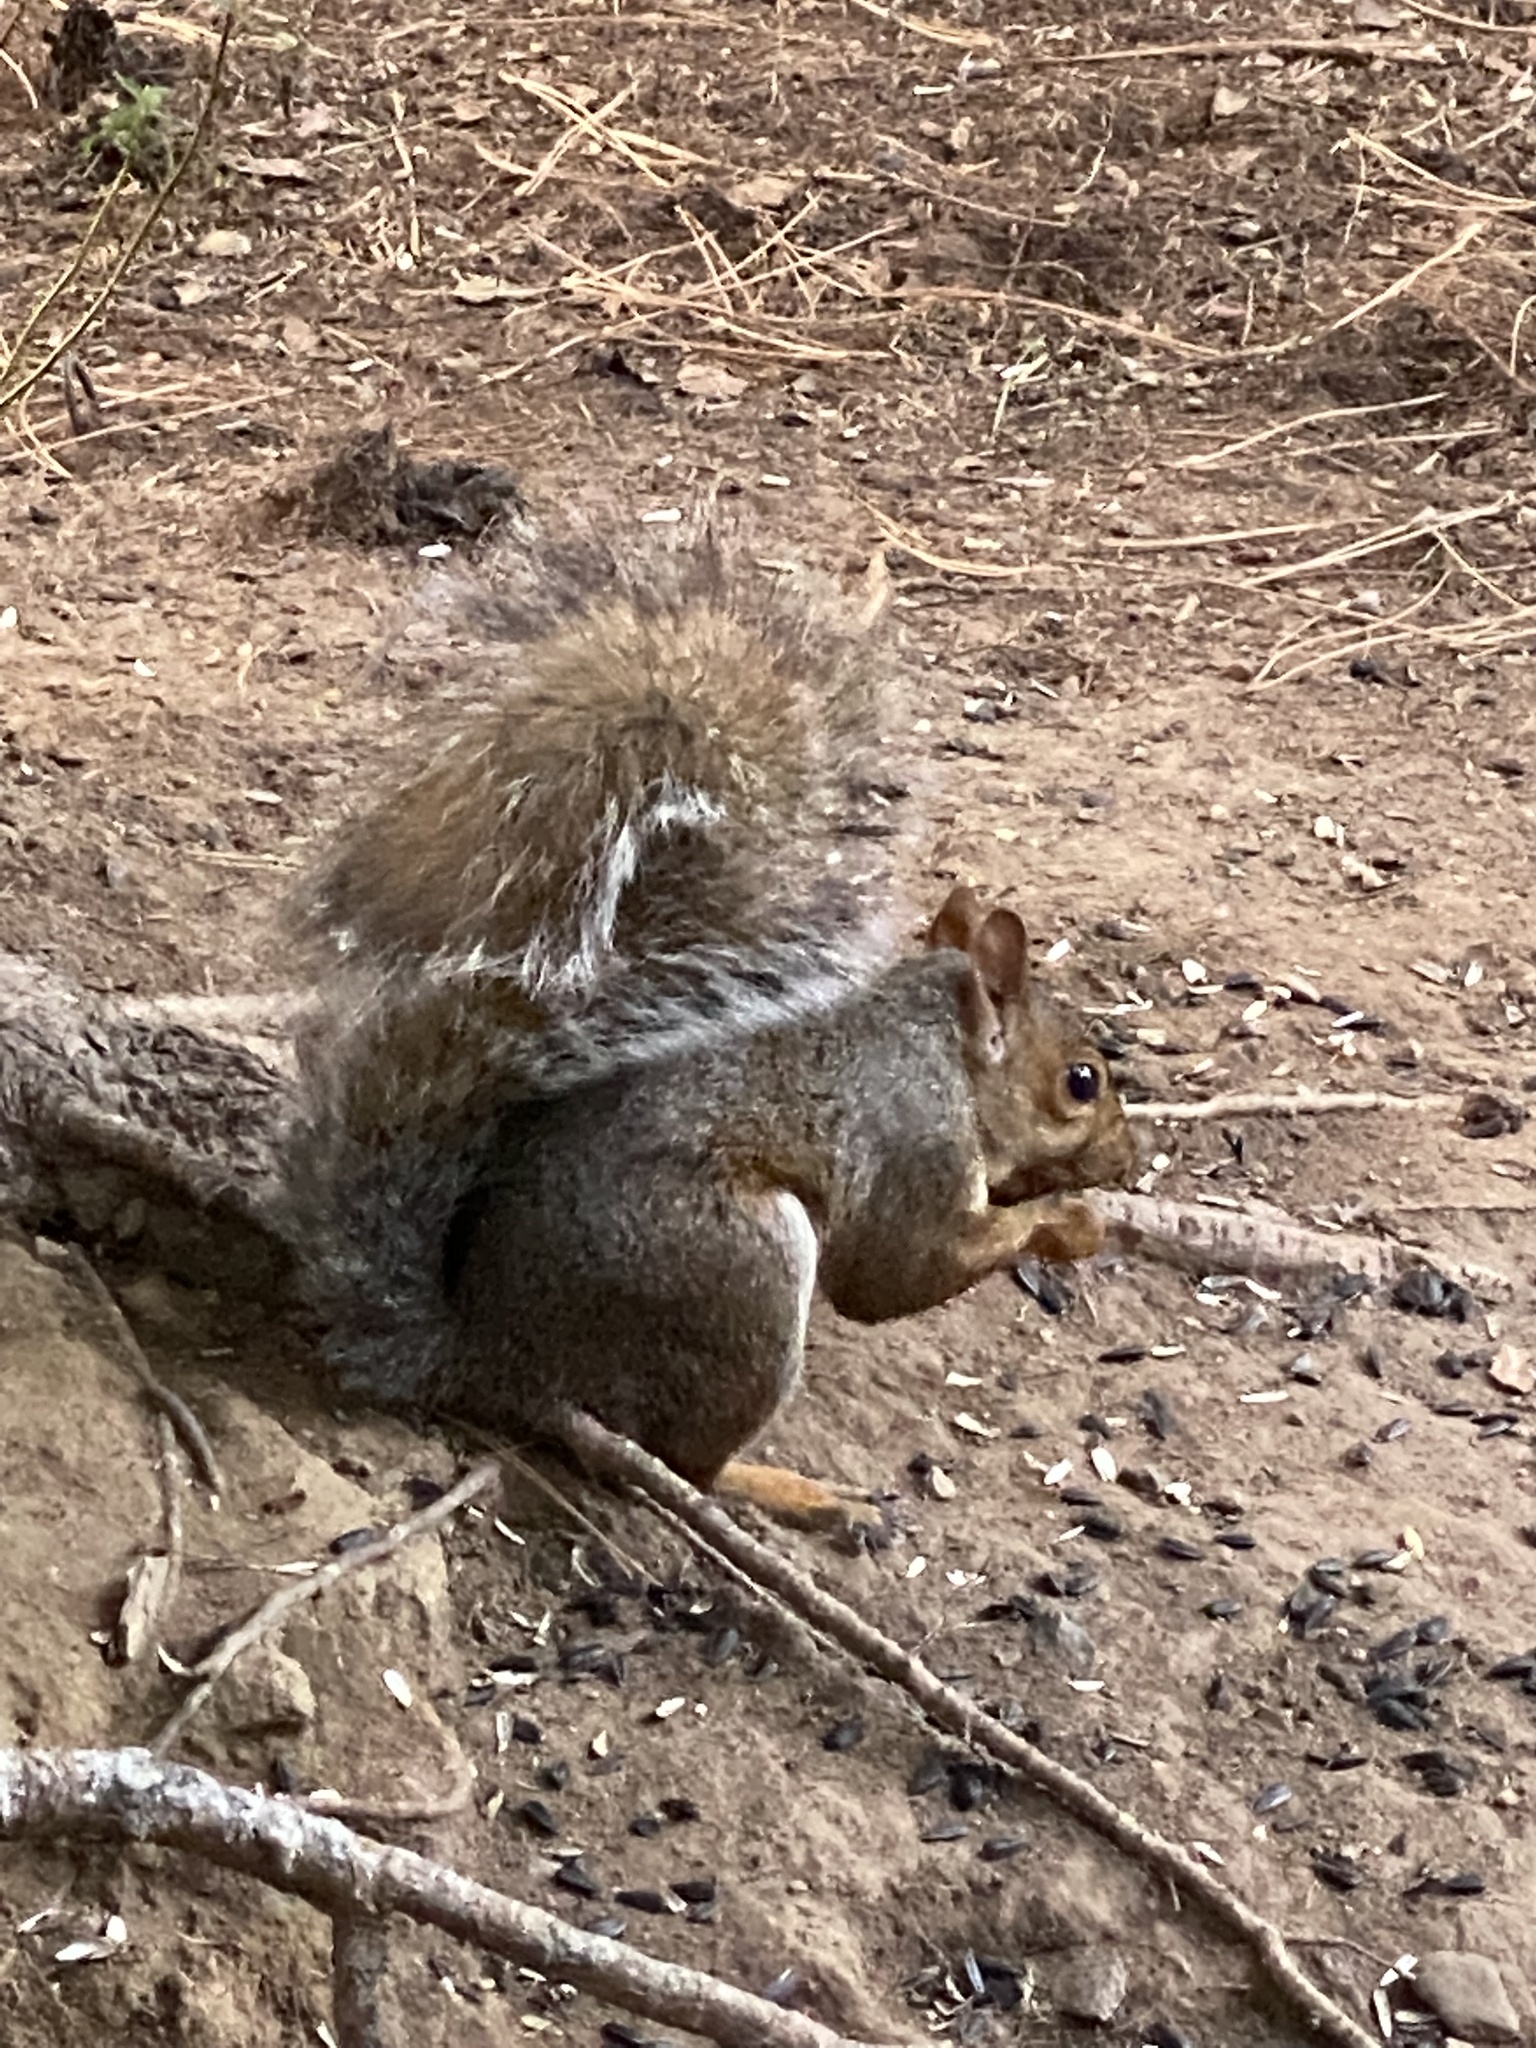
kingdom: Animalia
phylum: Chordata
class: Mammalia
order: Rodentia
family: Sciuridae
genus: Sciurus
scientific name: Sciurus carolinensis
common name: Eastern gray squirrel
